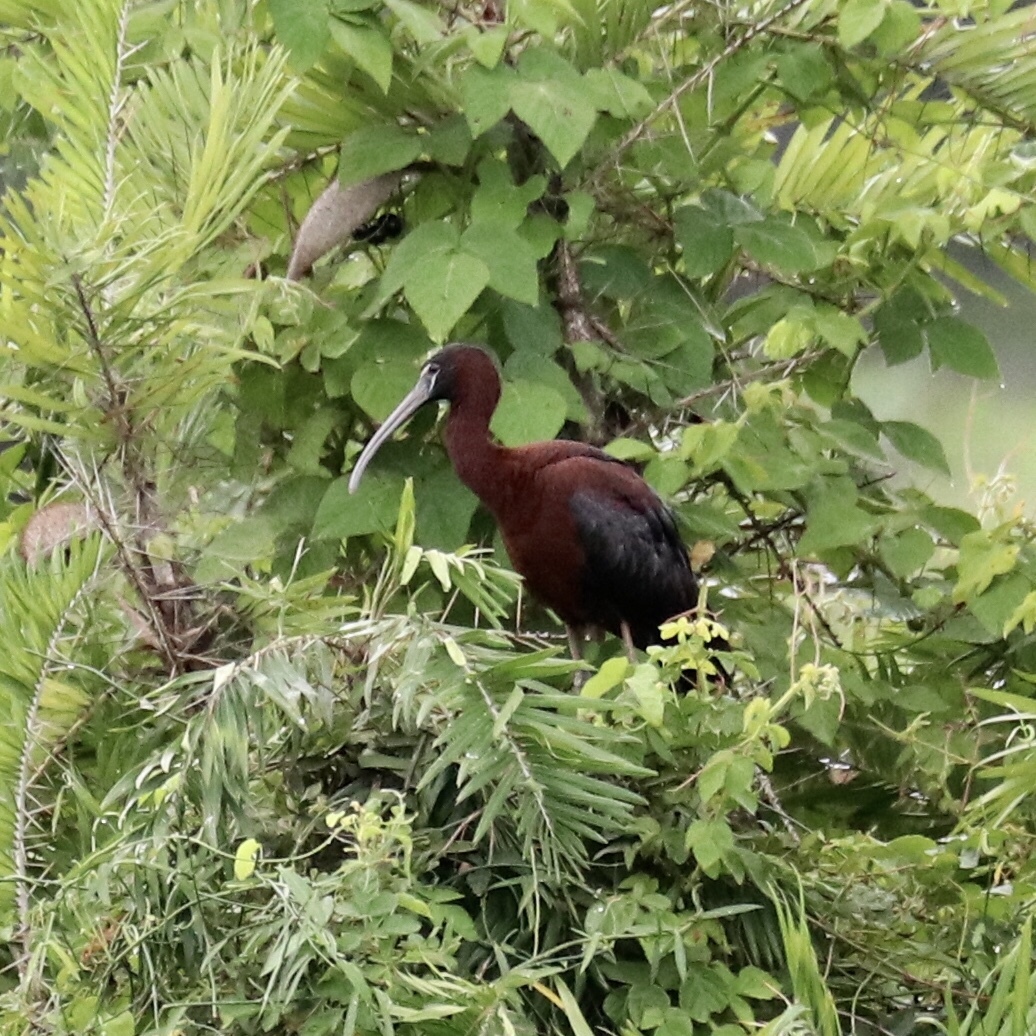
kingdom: Animalia
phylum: Chordata
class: Aves
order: Pelecaniformes
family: Threskiornithidae
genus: Plegadis
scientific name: Plegadis falcinellus
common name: Glossy ibis
